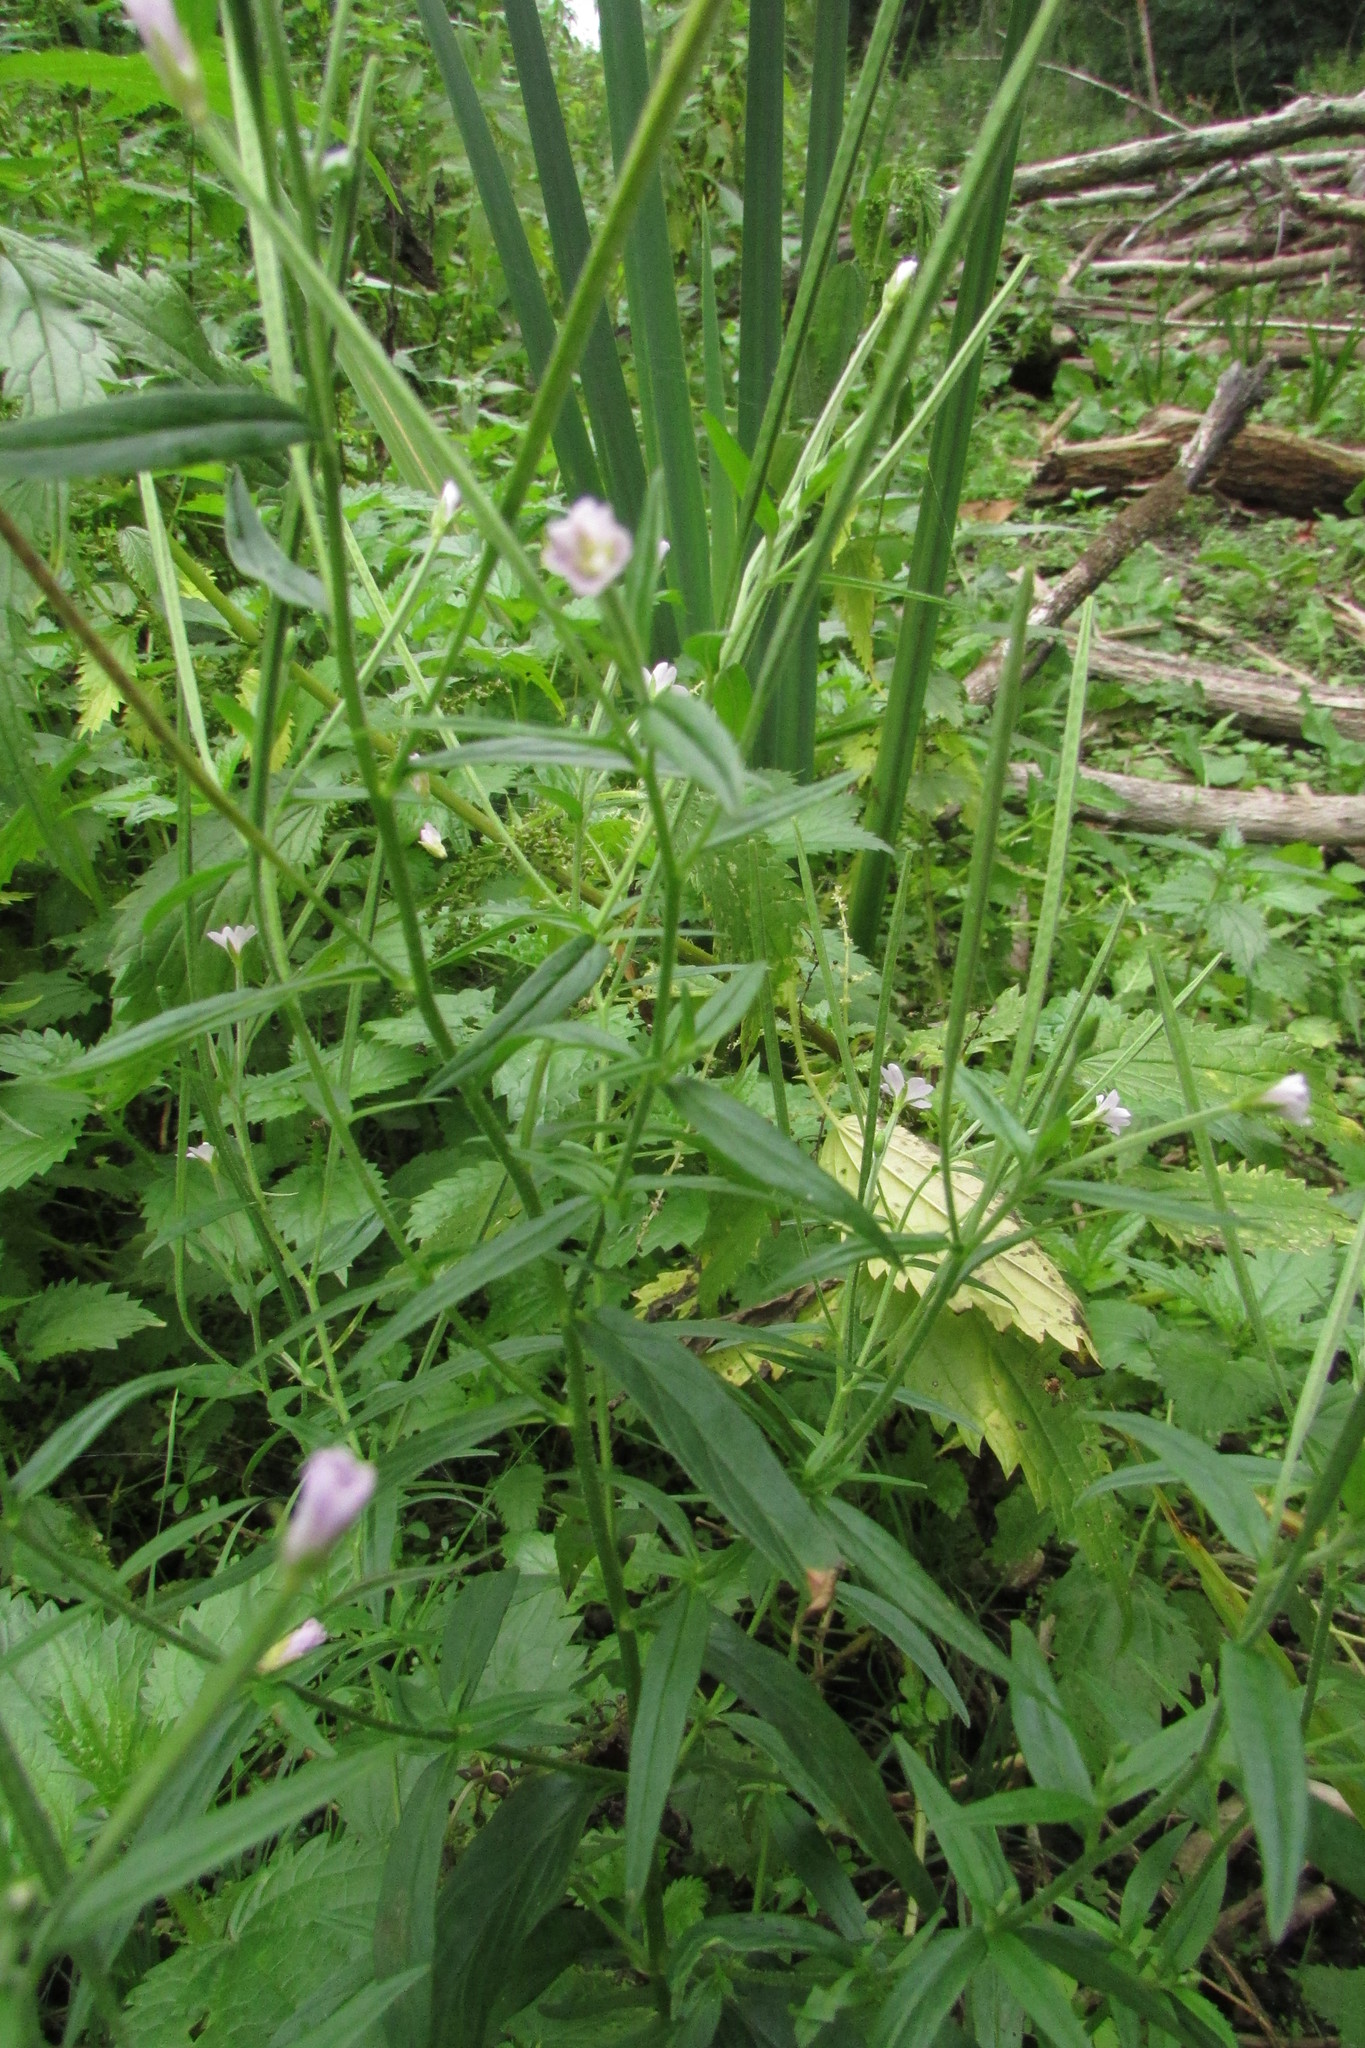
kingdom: Plantae
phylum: Tracheophyta
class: Magnoliopsida
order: Myrtales
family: Onagraceae
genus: Epilobium
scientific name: Epilobium palustre
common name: Marsh willowherb
